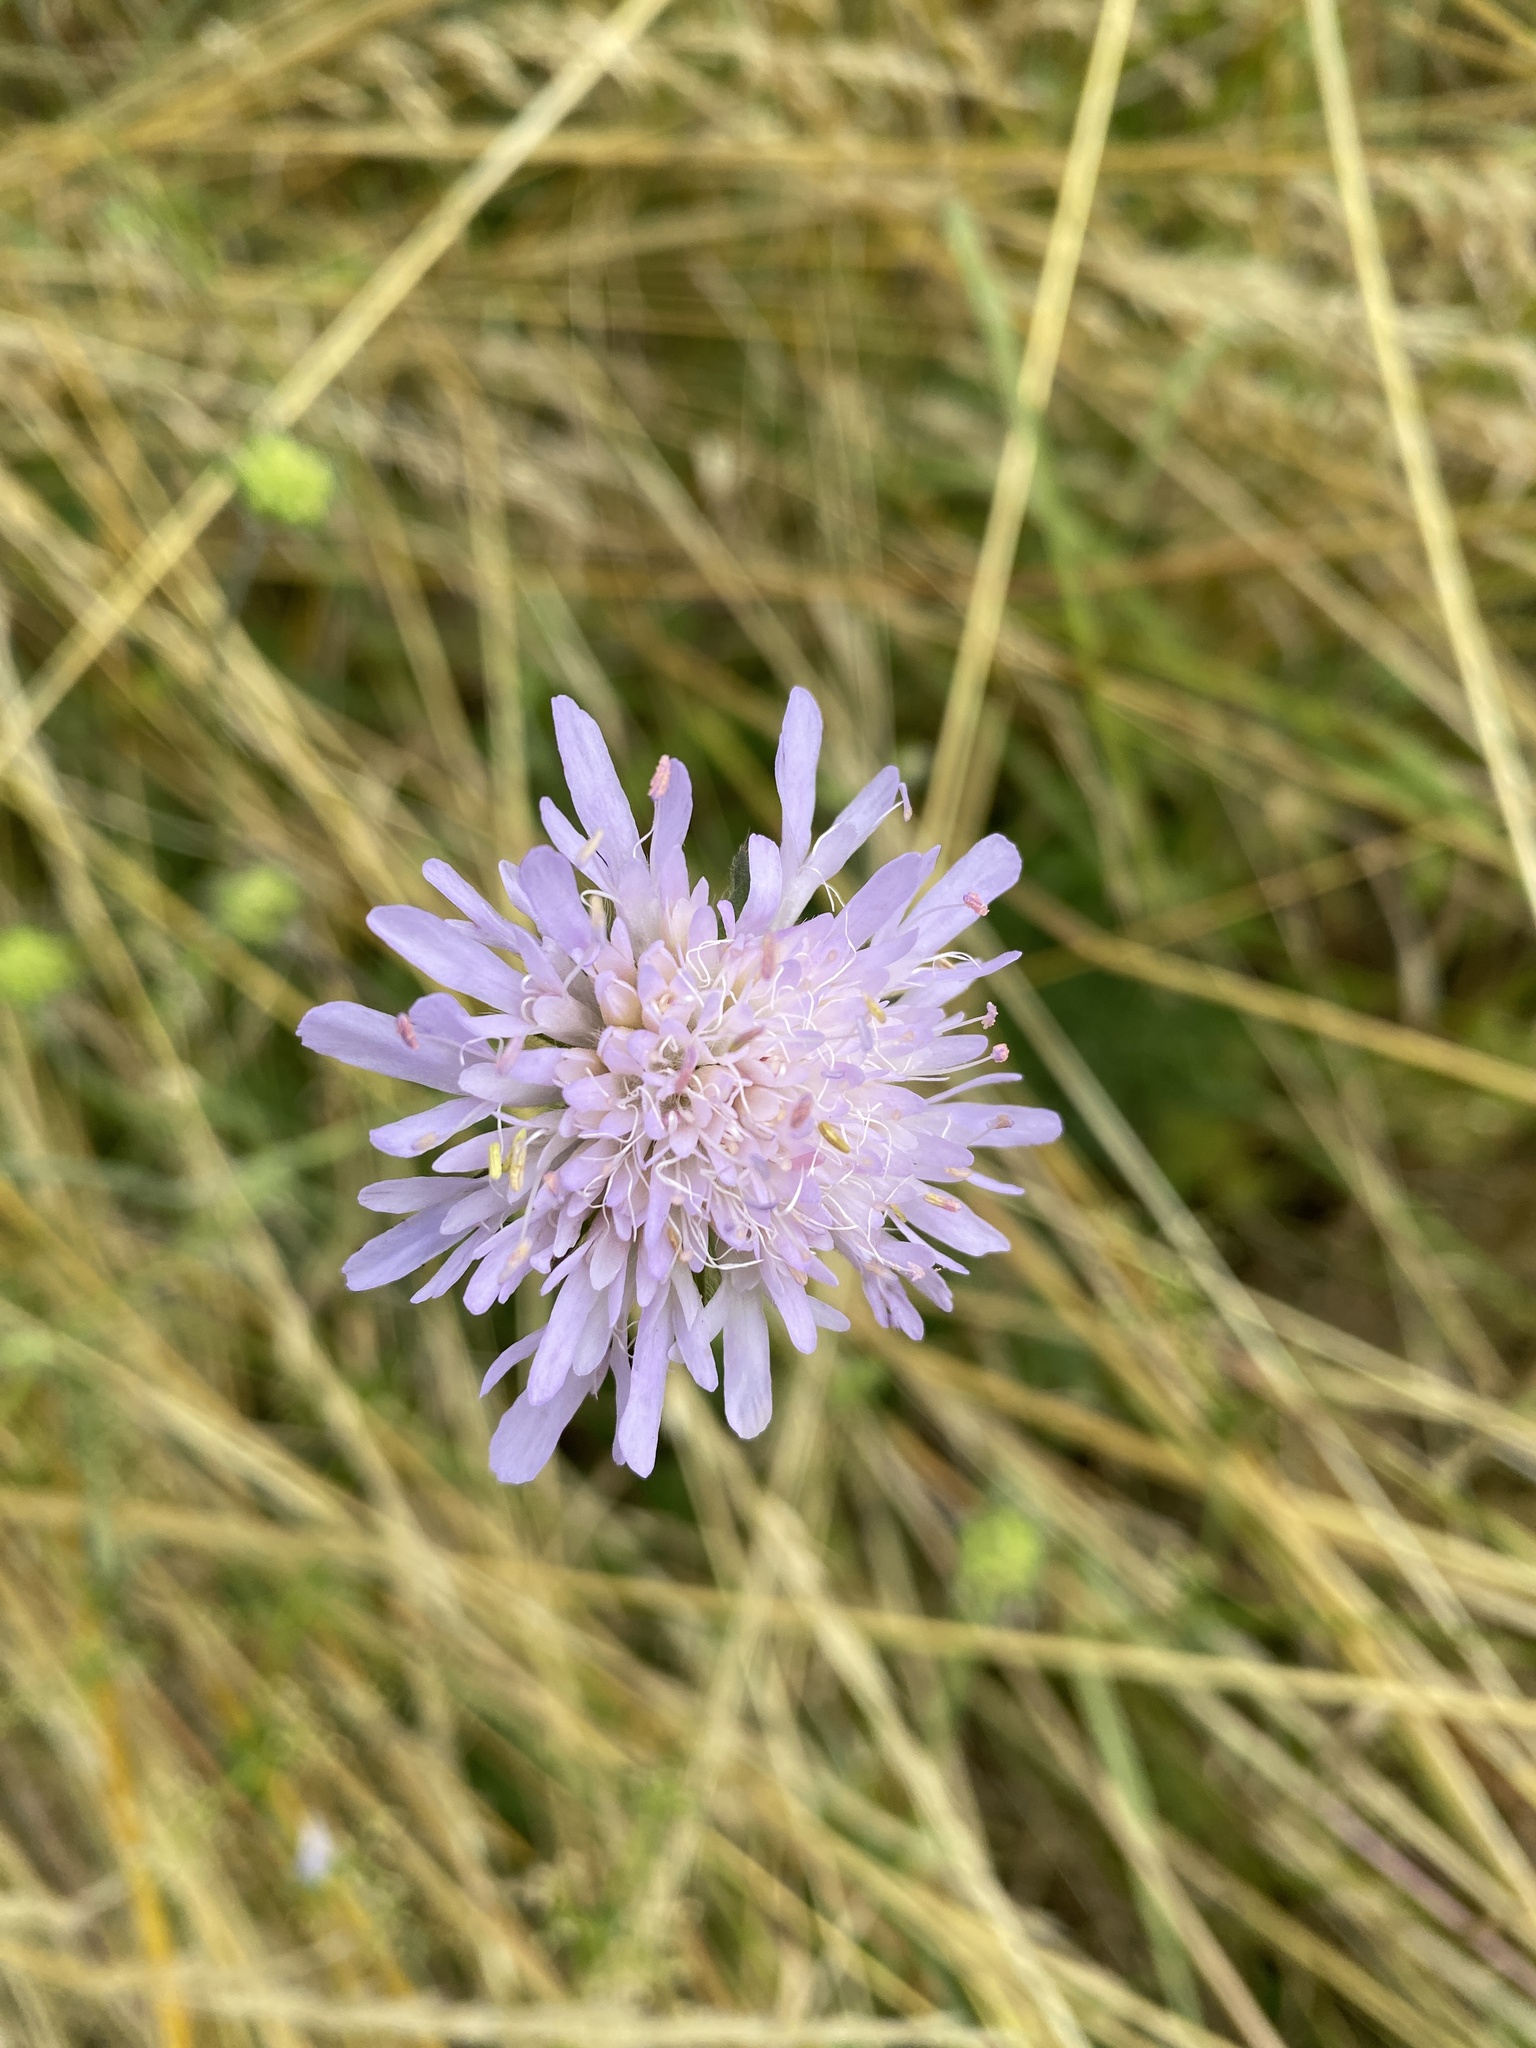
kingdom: Plantae
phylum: Tracheophyta
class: Magnoliopsida
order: Dipsacales
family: Caprifoliaceae
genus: Knautia
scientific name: Knautia arvensis
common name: Field scabiosa
